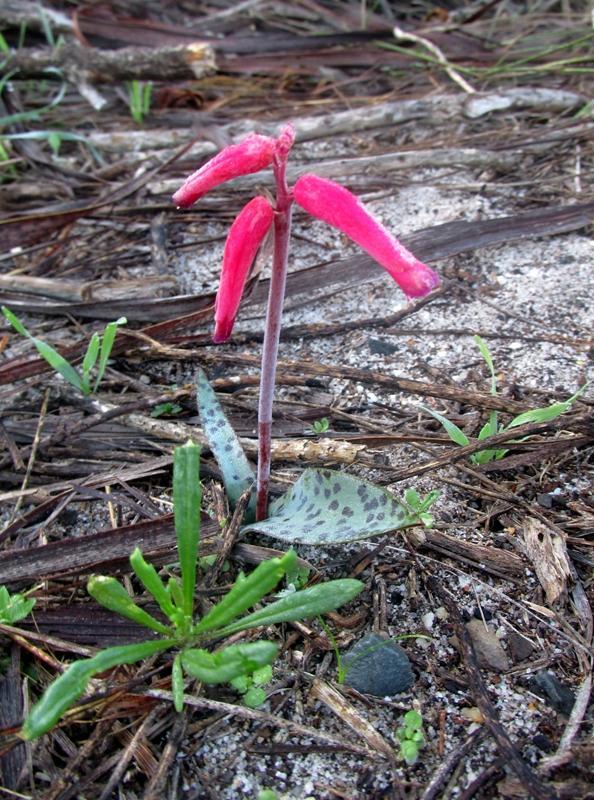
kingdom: Plantae
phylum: Tracheophyta
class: Liliopsida
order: Asparagales
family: Asparagaceae
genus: Lachenalia
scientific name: Lachenalia punctata
